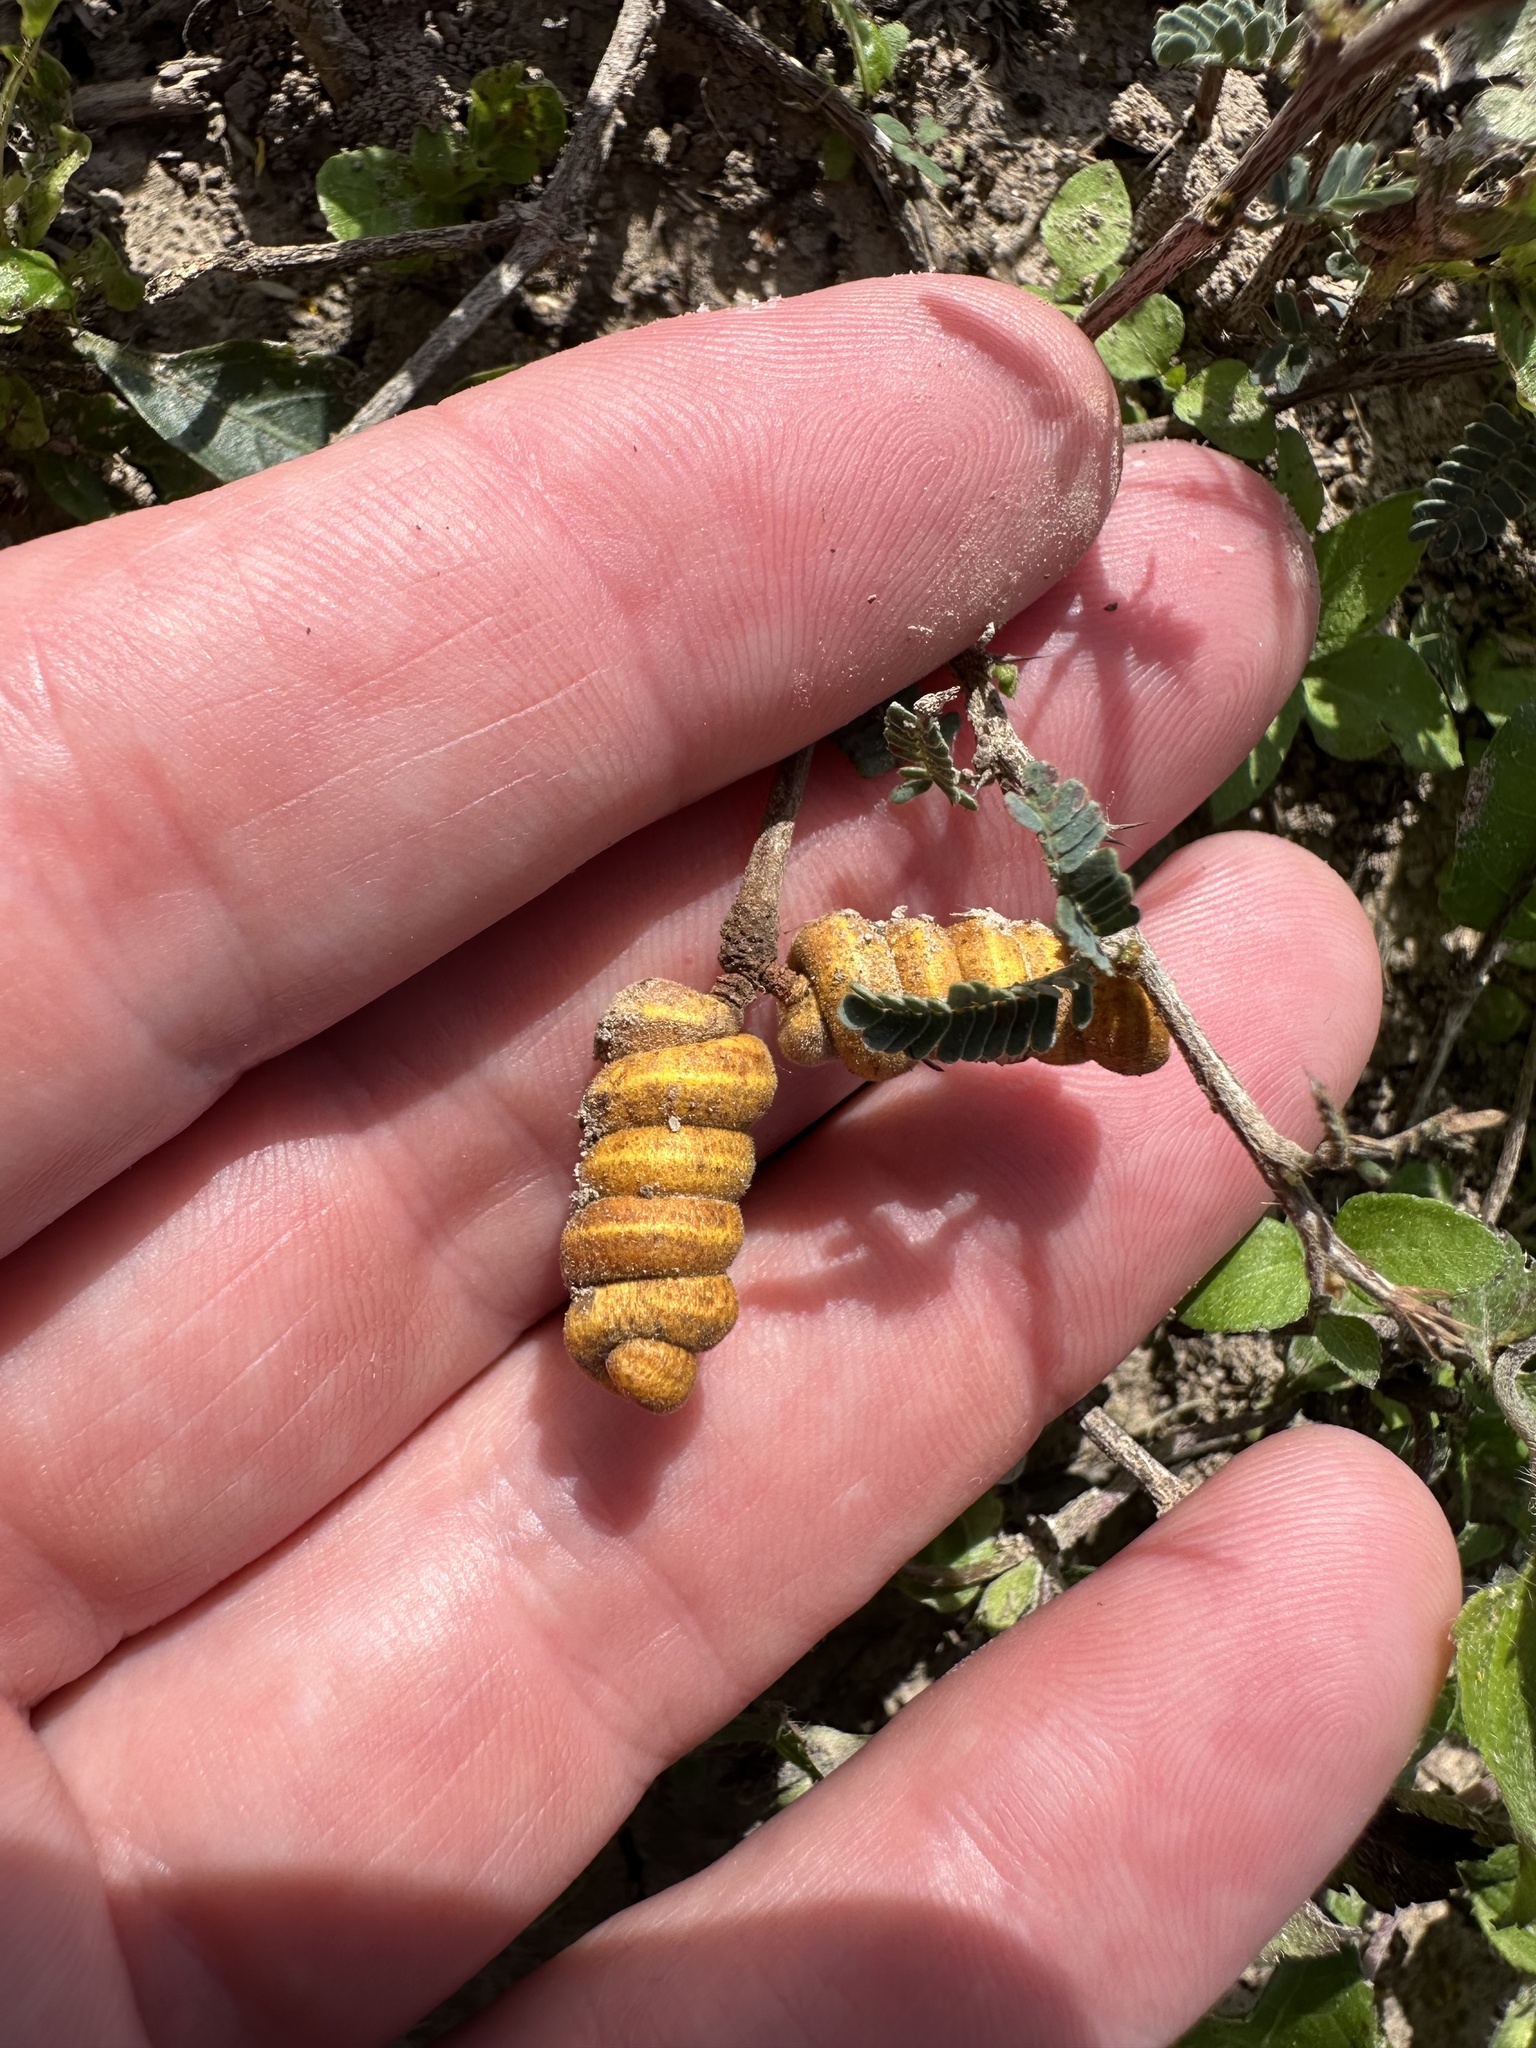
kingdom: Plantae
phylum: Tracheophyta
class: Magnoliopsida
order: Fabales
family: Fabaceae
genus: Prosopis
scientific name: Prosopis cinerascens
